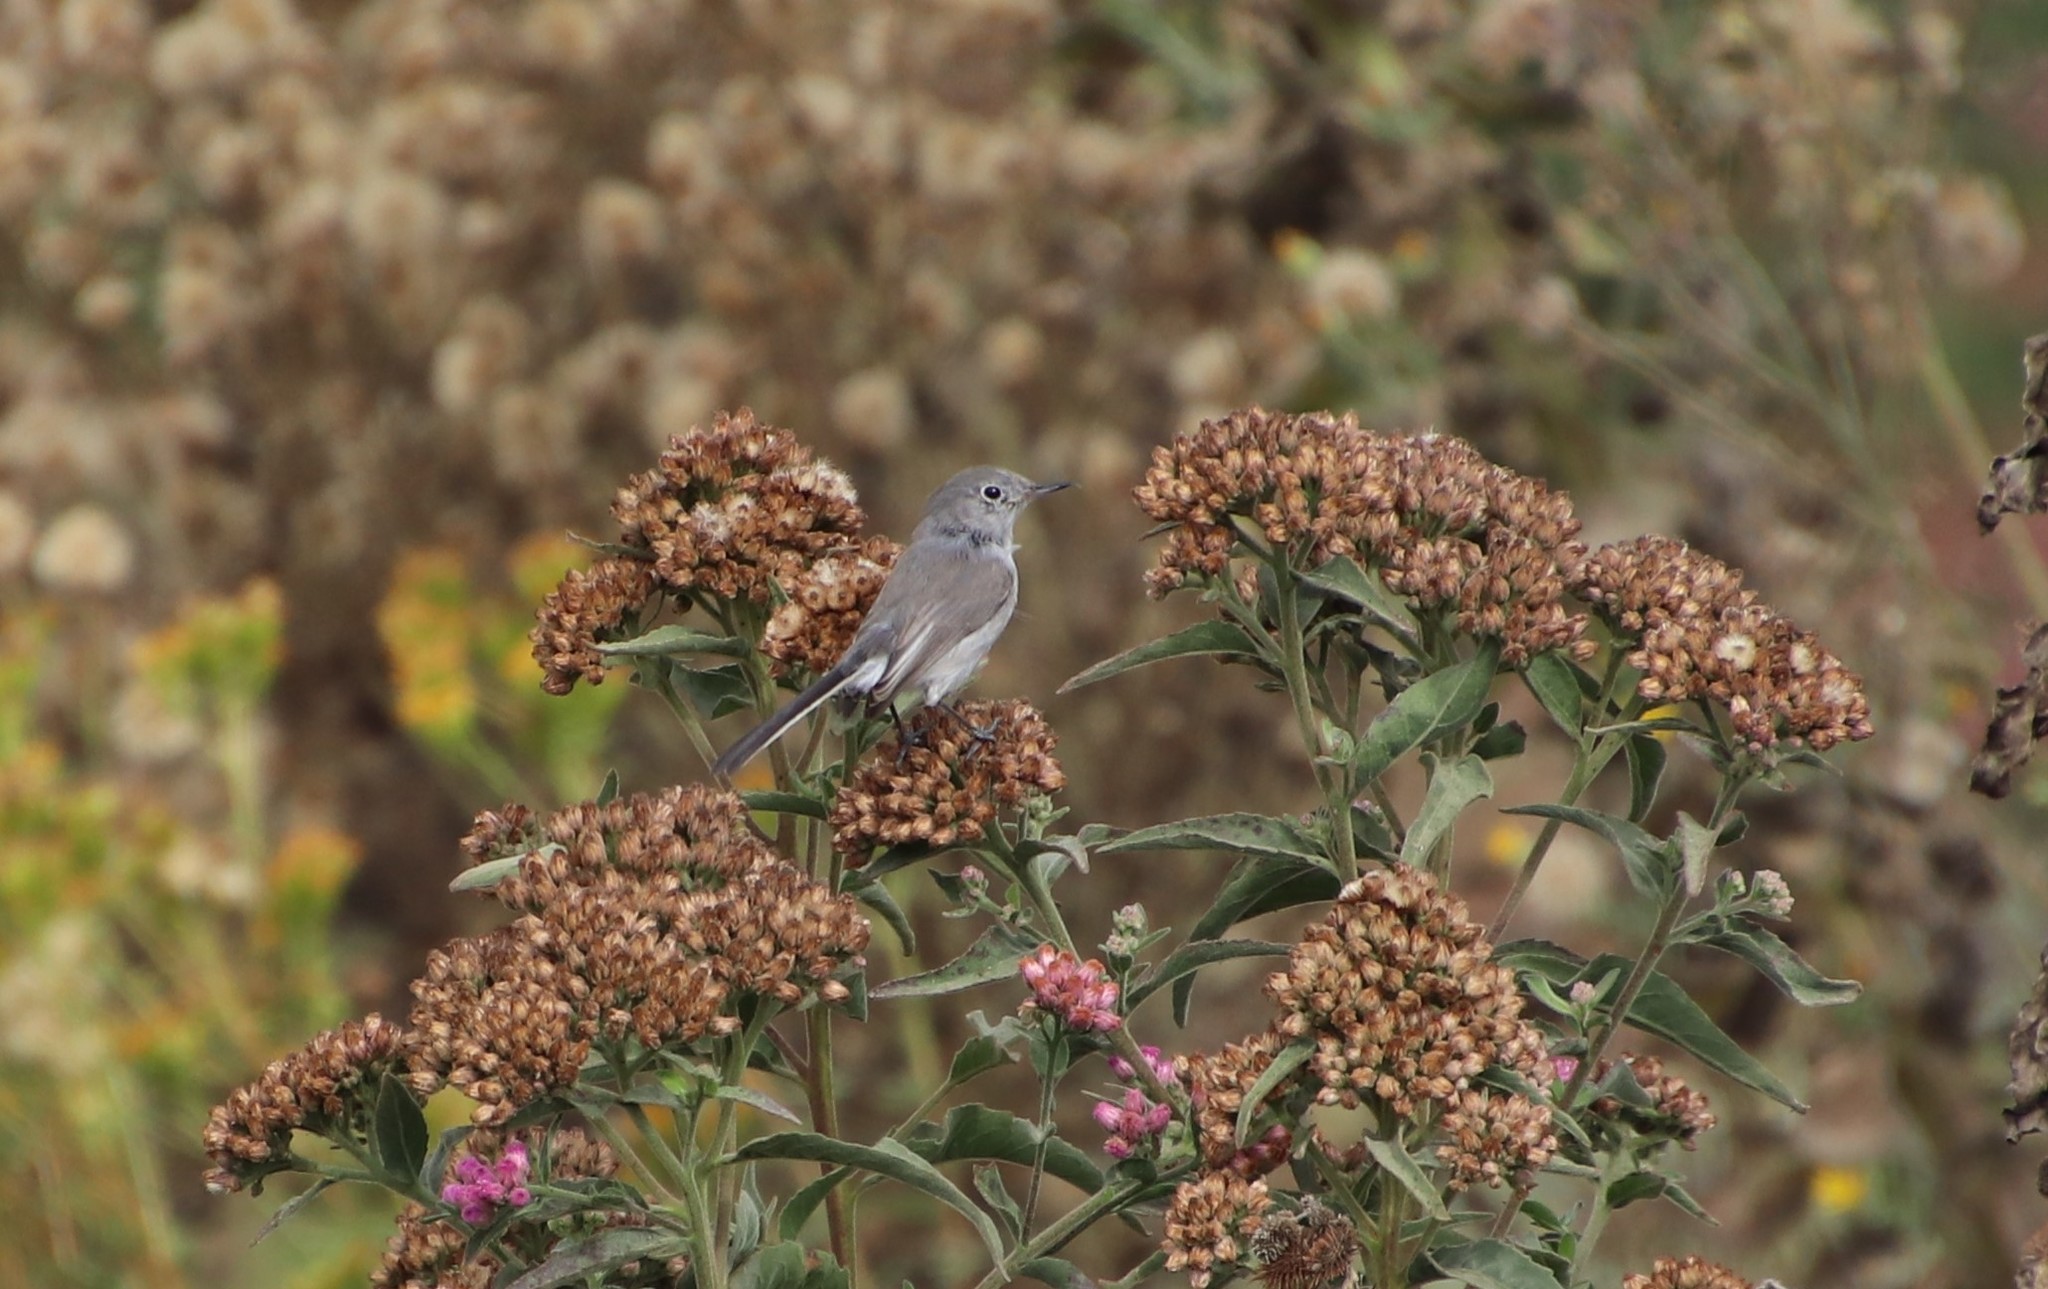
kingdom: Animalia
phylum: Chordata
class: Aves
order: Passeriformes
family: Polioptilidae
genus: Polioptila
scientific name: Polioptila caerulea
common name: Blue-gray gnatcatcher
